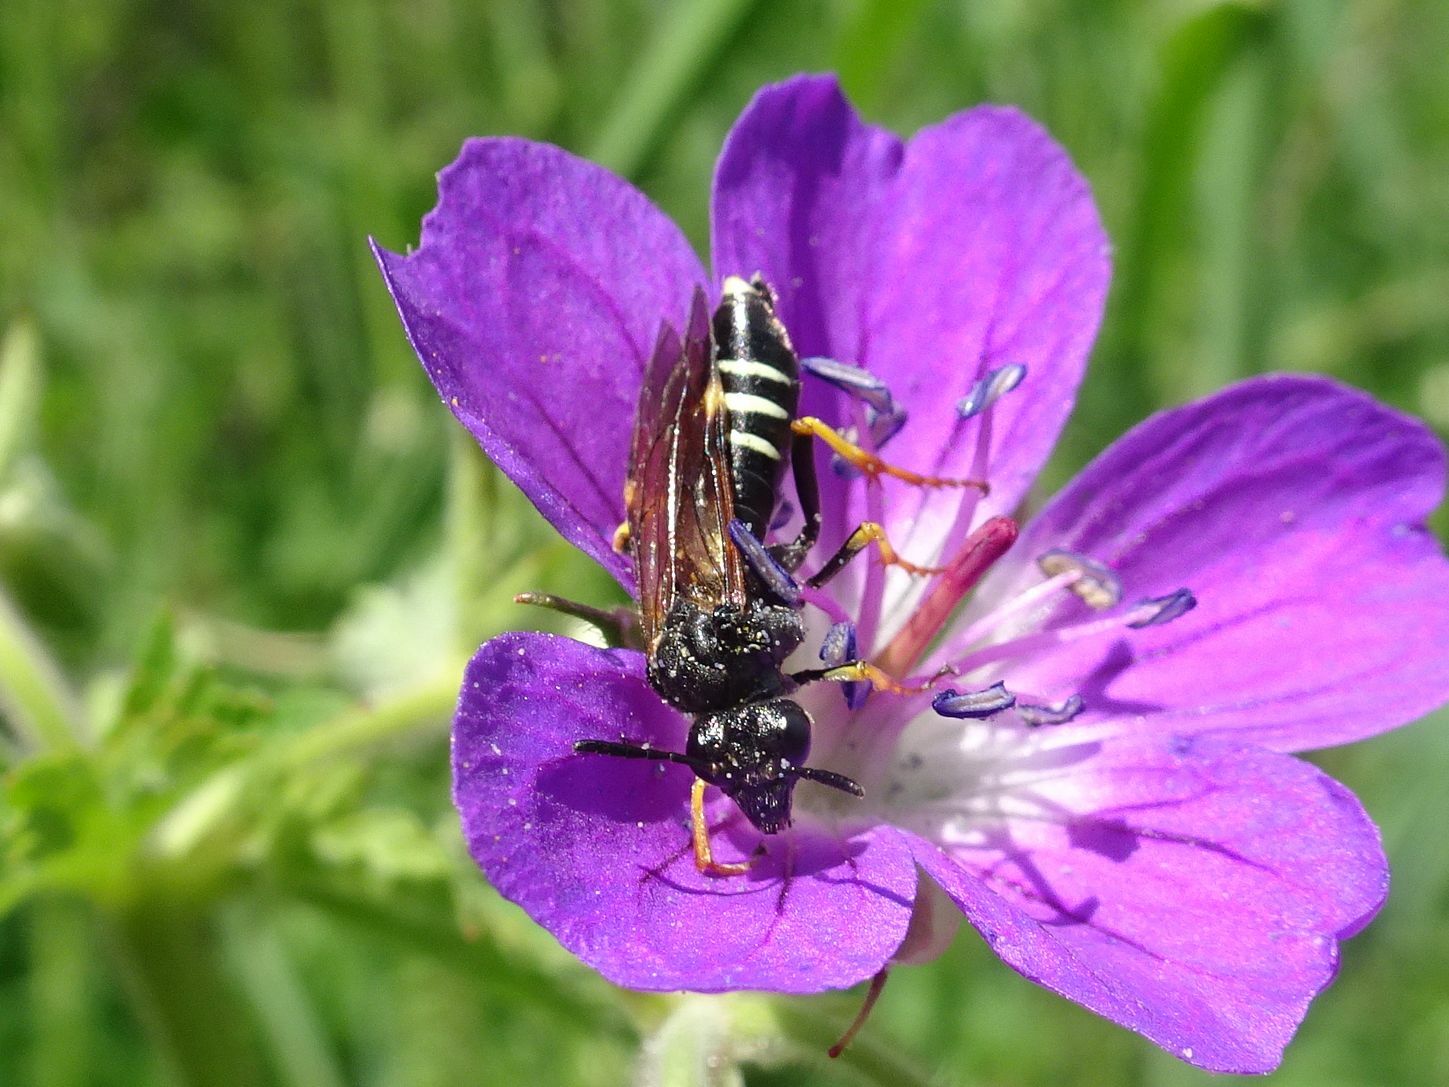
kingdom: Animalia
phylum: Arthropoda
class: Insecta
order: Hymenoptera
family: Tenthredinidae
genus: Tenthredo
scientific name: Tenthredo koehleri
